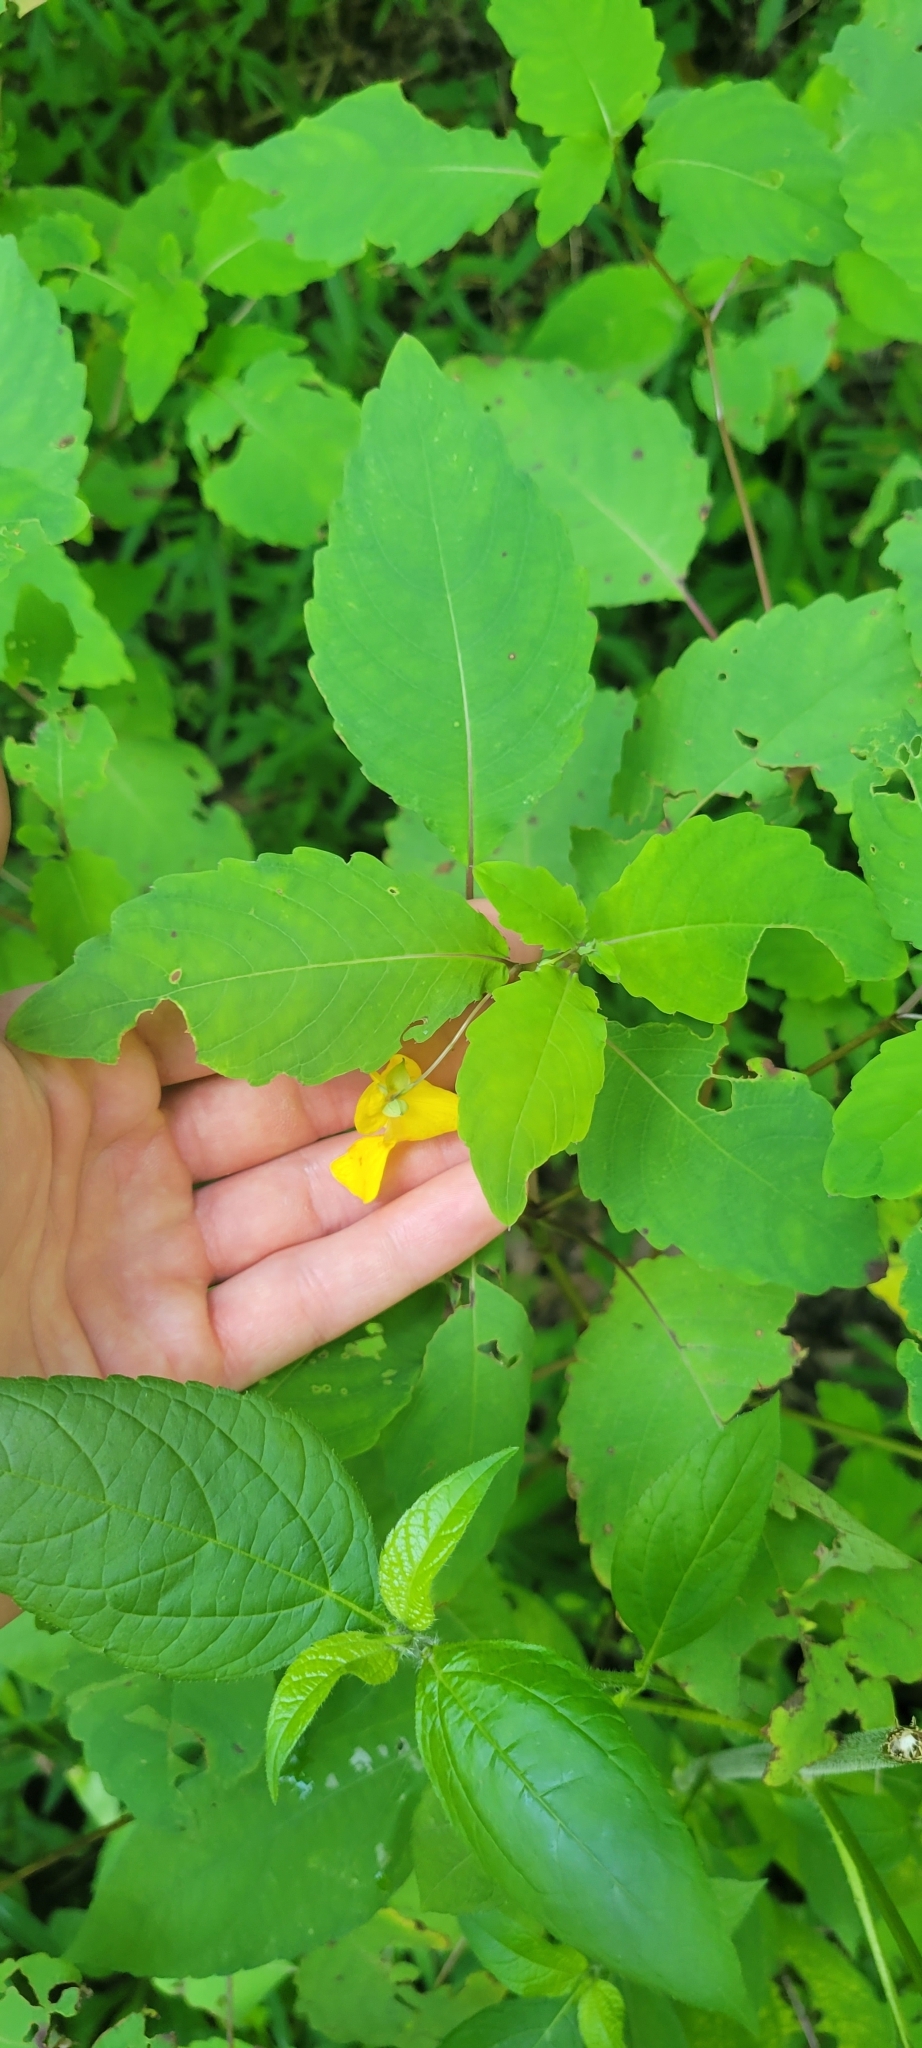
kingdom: Plantae
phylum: Tracheophyta
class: Magnoliopsida
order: Ericales
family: Balsaminaceae
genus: Impatiens
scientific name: Impatiens pallida
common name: Pale snapweed
